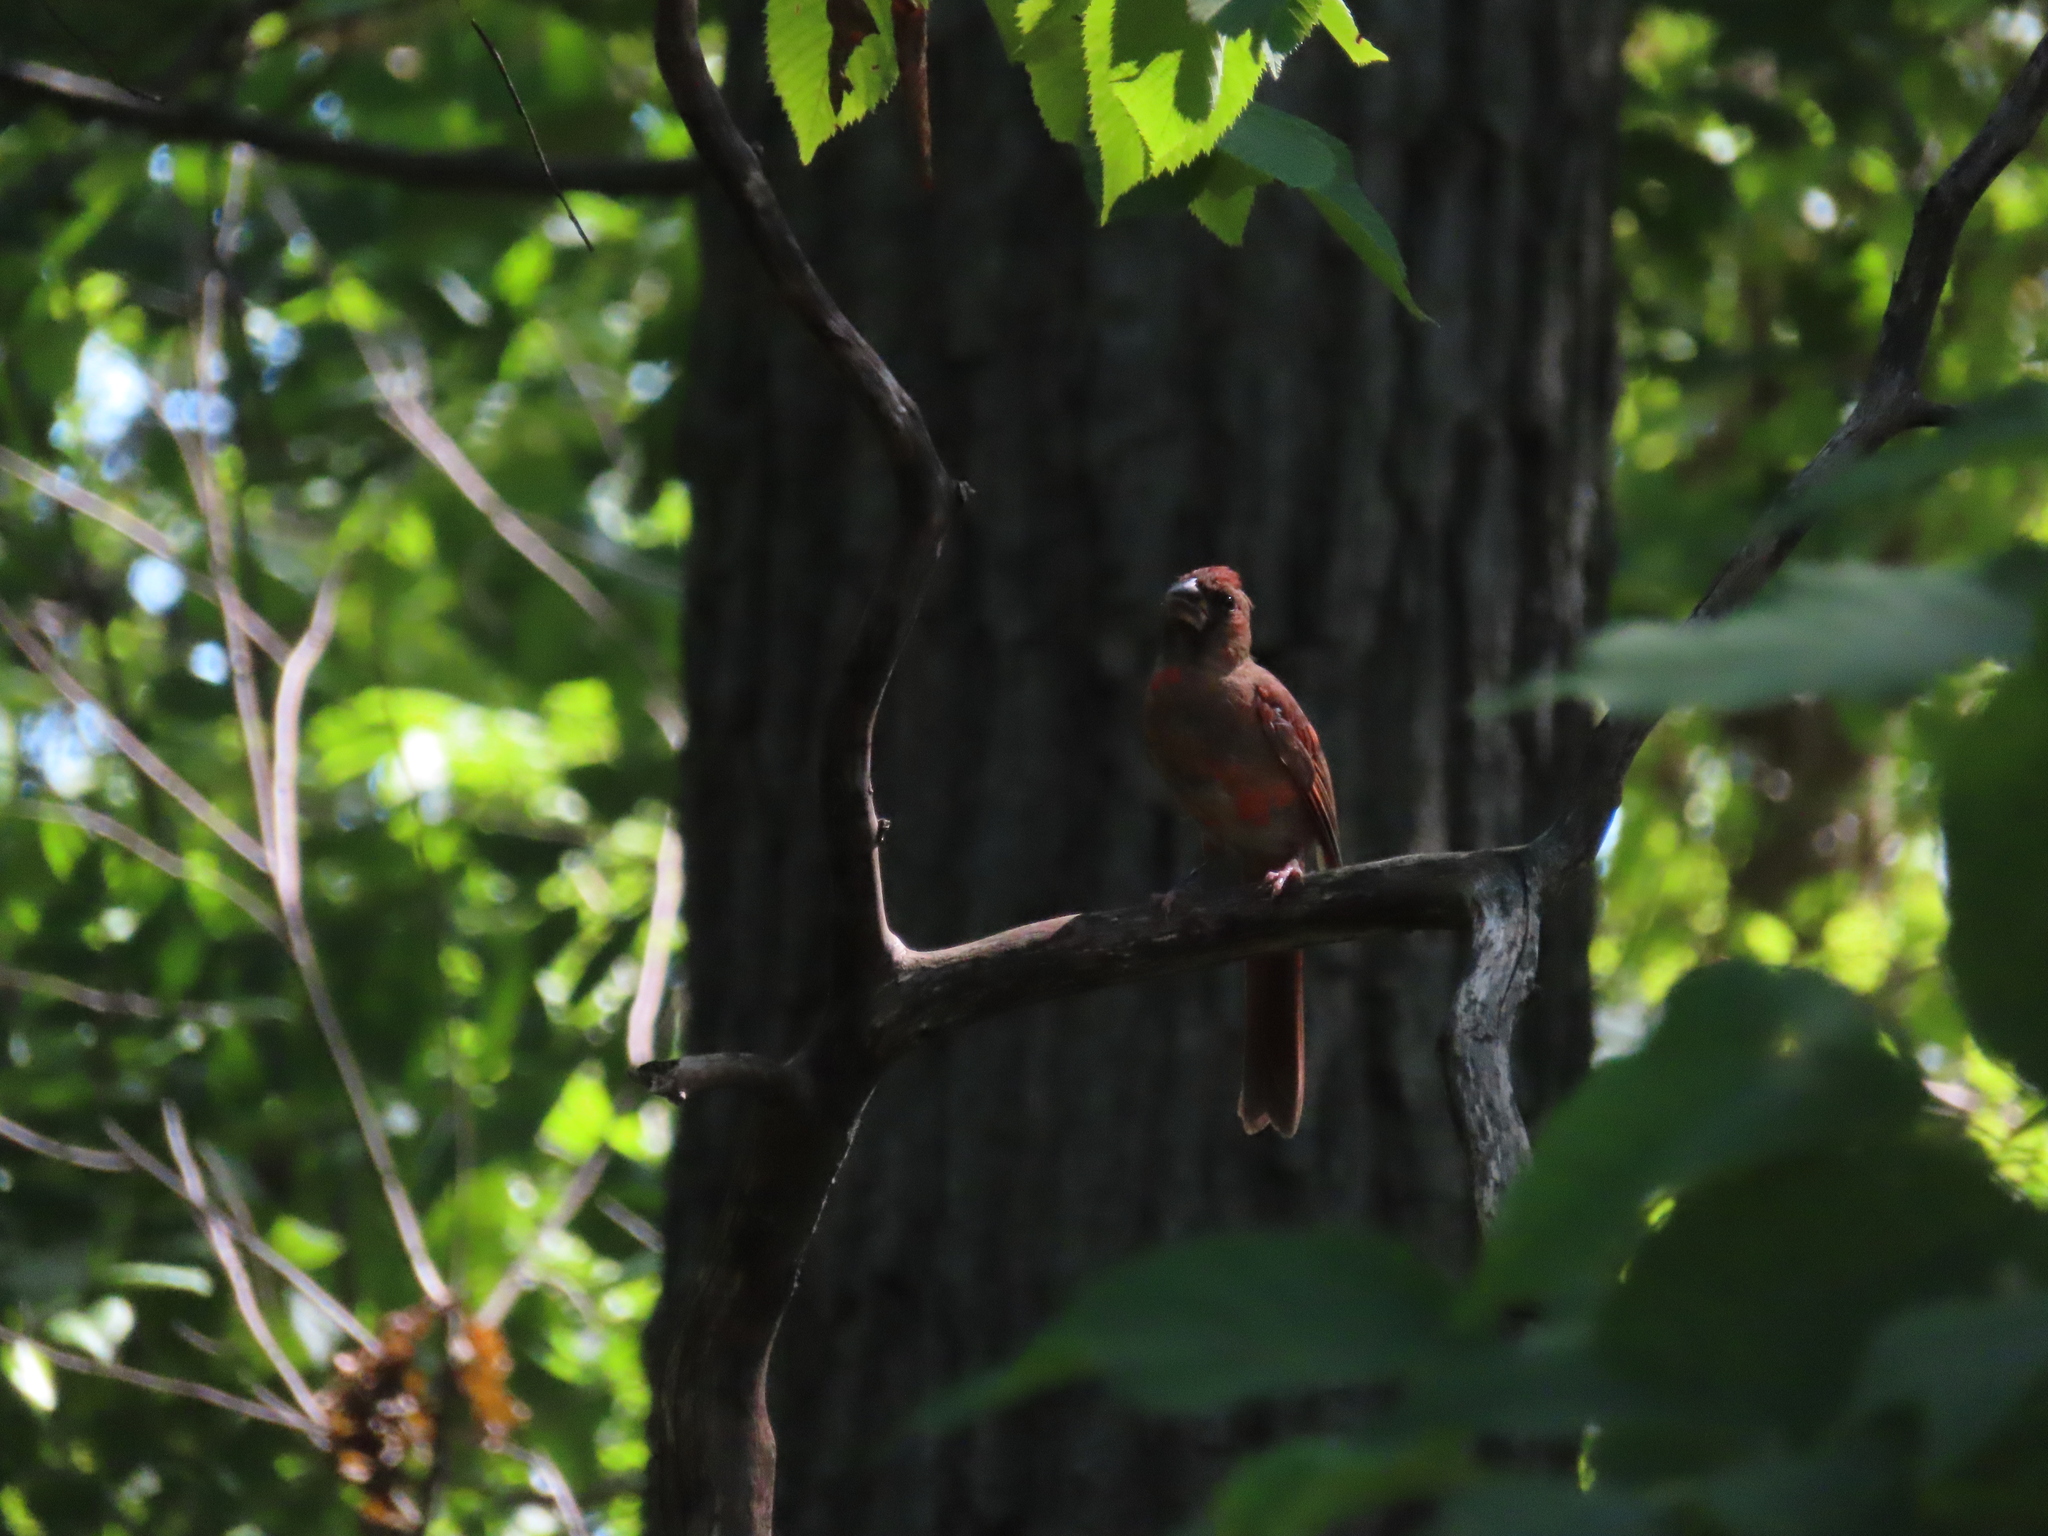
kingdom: Animalia
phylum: Chordata
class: Aves
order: Passeriformes
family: Cardinalidae
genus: Cardinalis
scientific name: Cardinalis cardinalis
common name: Northern cardinal
